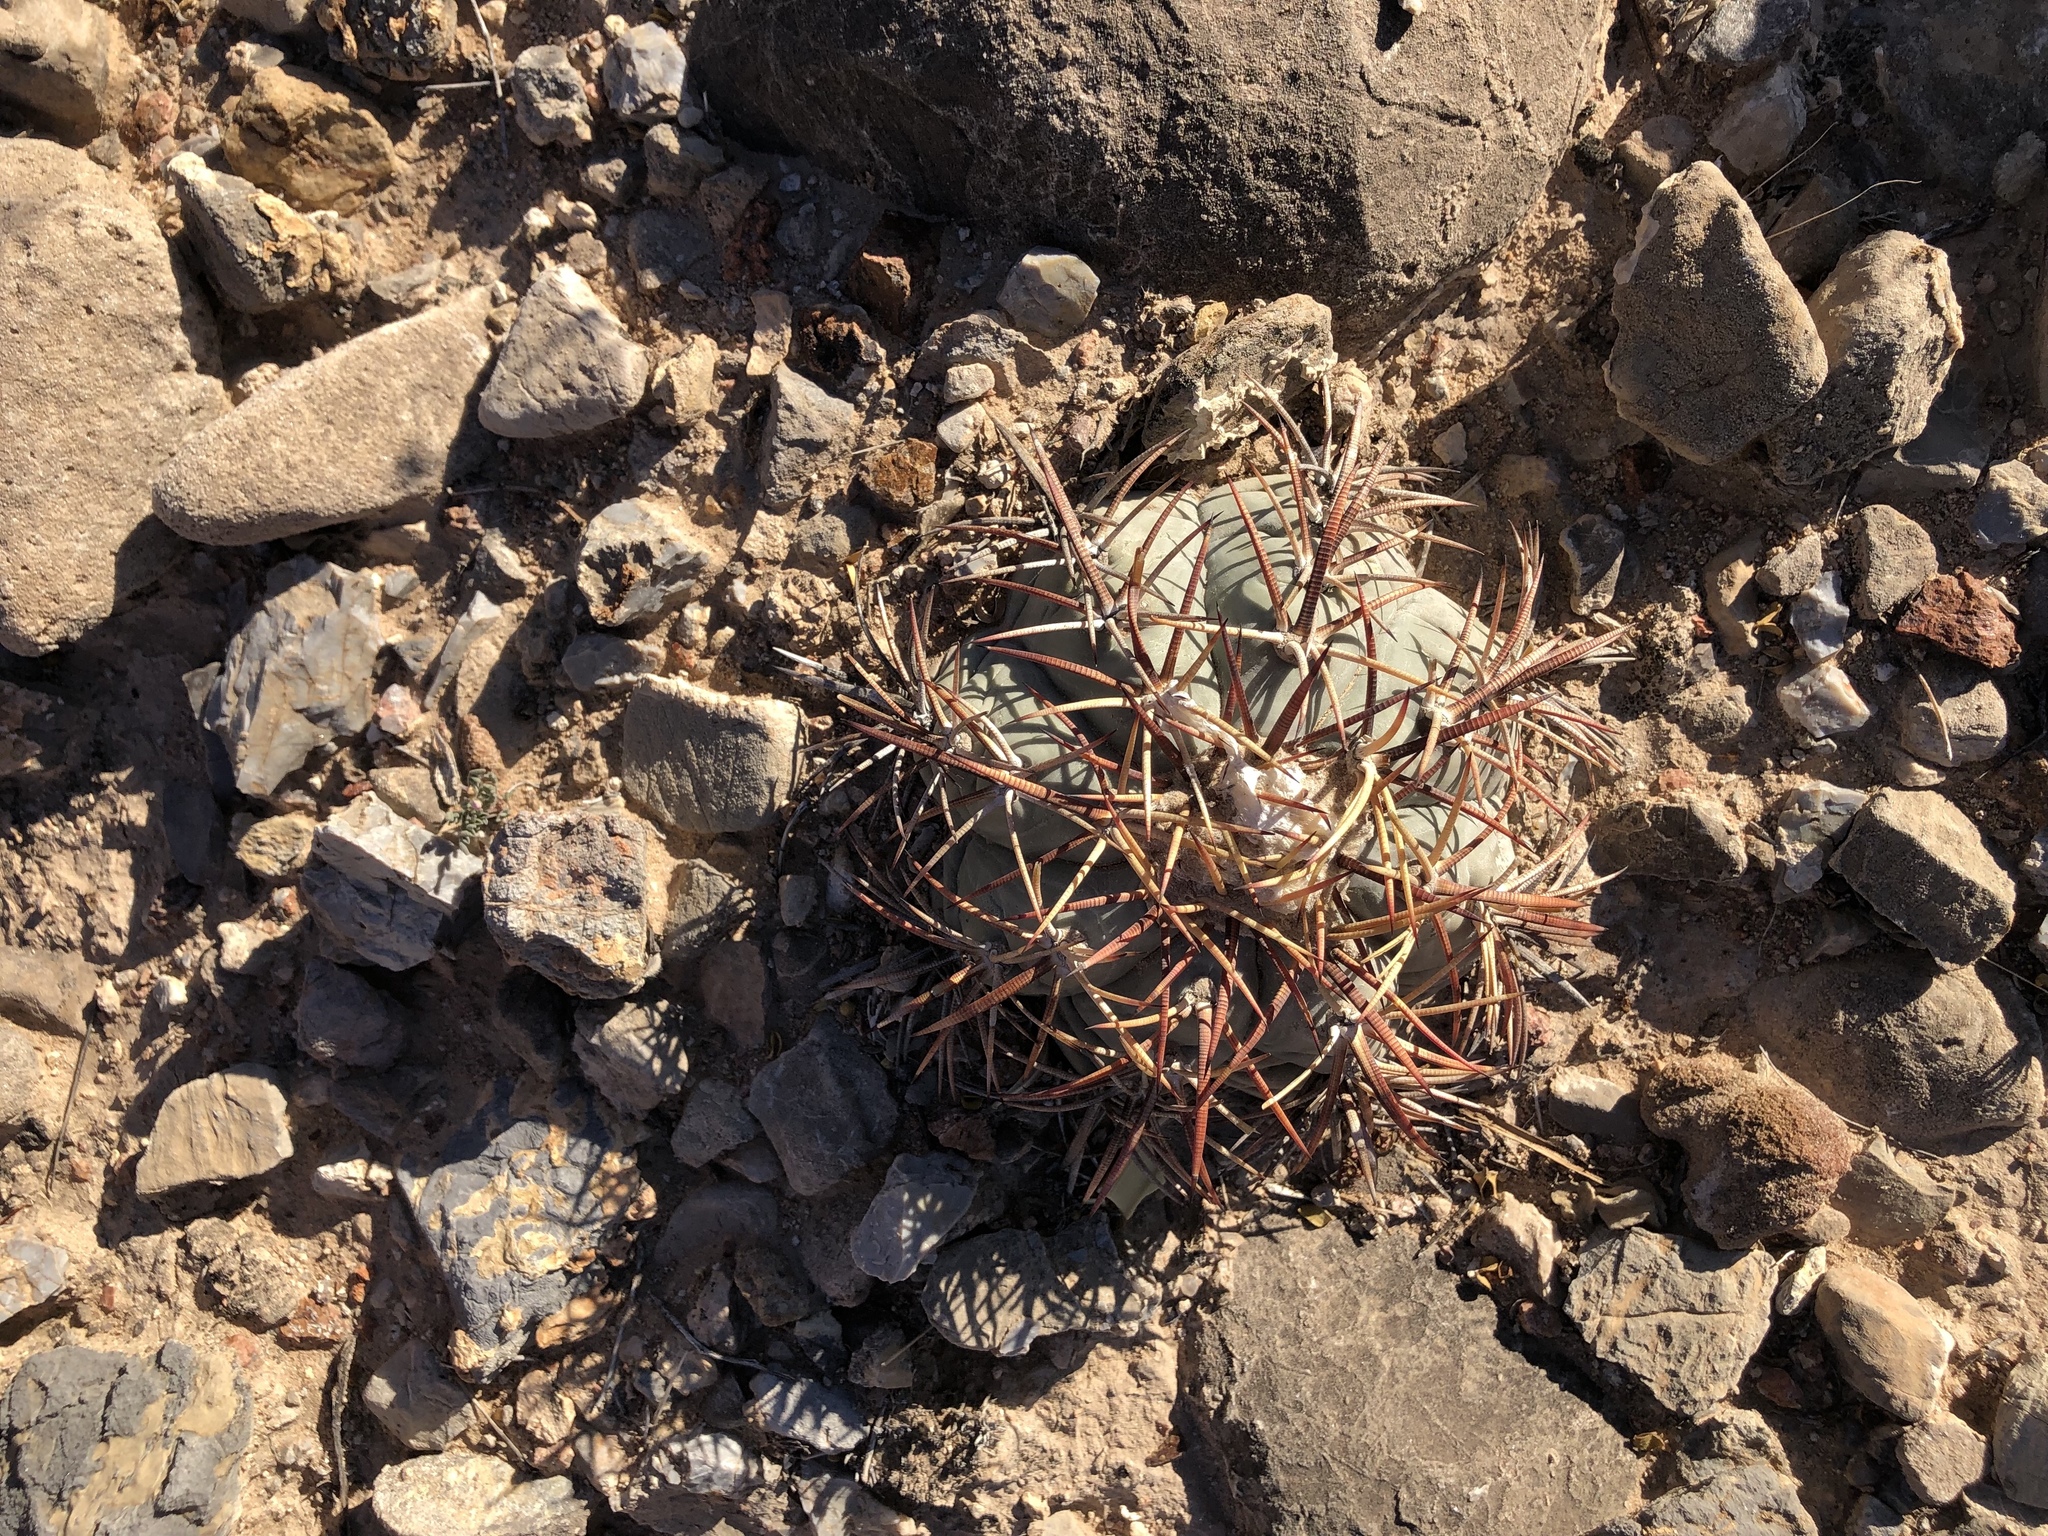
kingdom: Plantae
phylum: Tracheophyta
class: Magnoliopsida
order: Caryophyllales
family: Cactaceae
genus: Echinocactus
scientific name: Echinocactus horizonthalonius
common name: Devilshead
